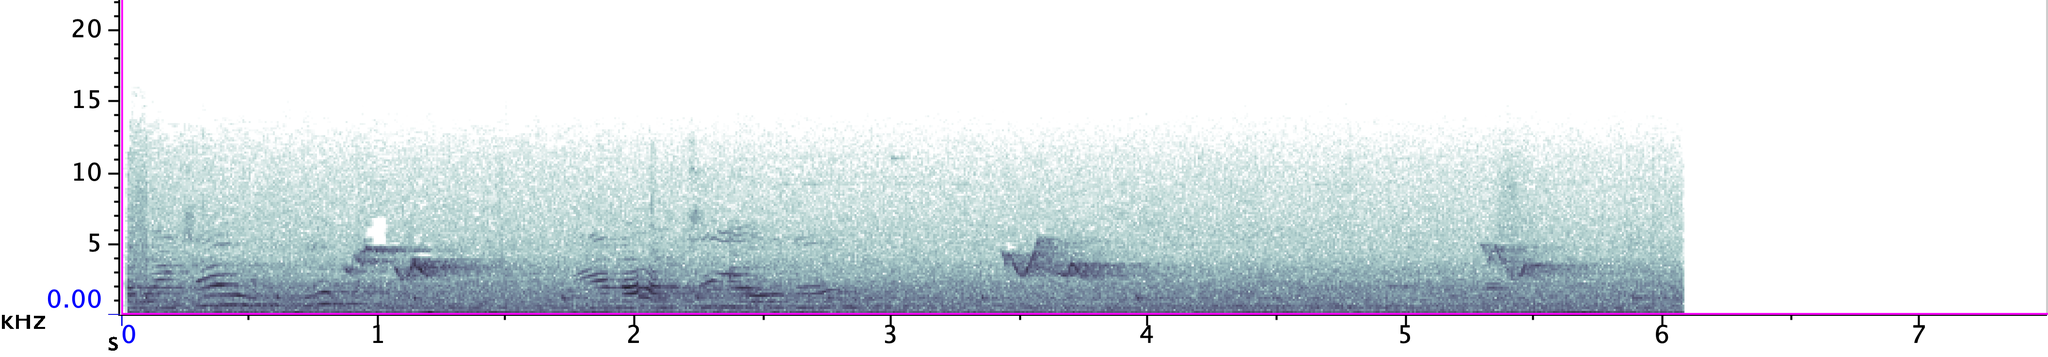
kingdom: Animalia
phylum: Chordata
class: Aves
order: Passeriformes
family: Vireonidae
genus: Vireo
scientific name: Vireo olivaceus
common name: Red-eyed vireo
